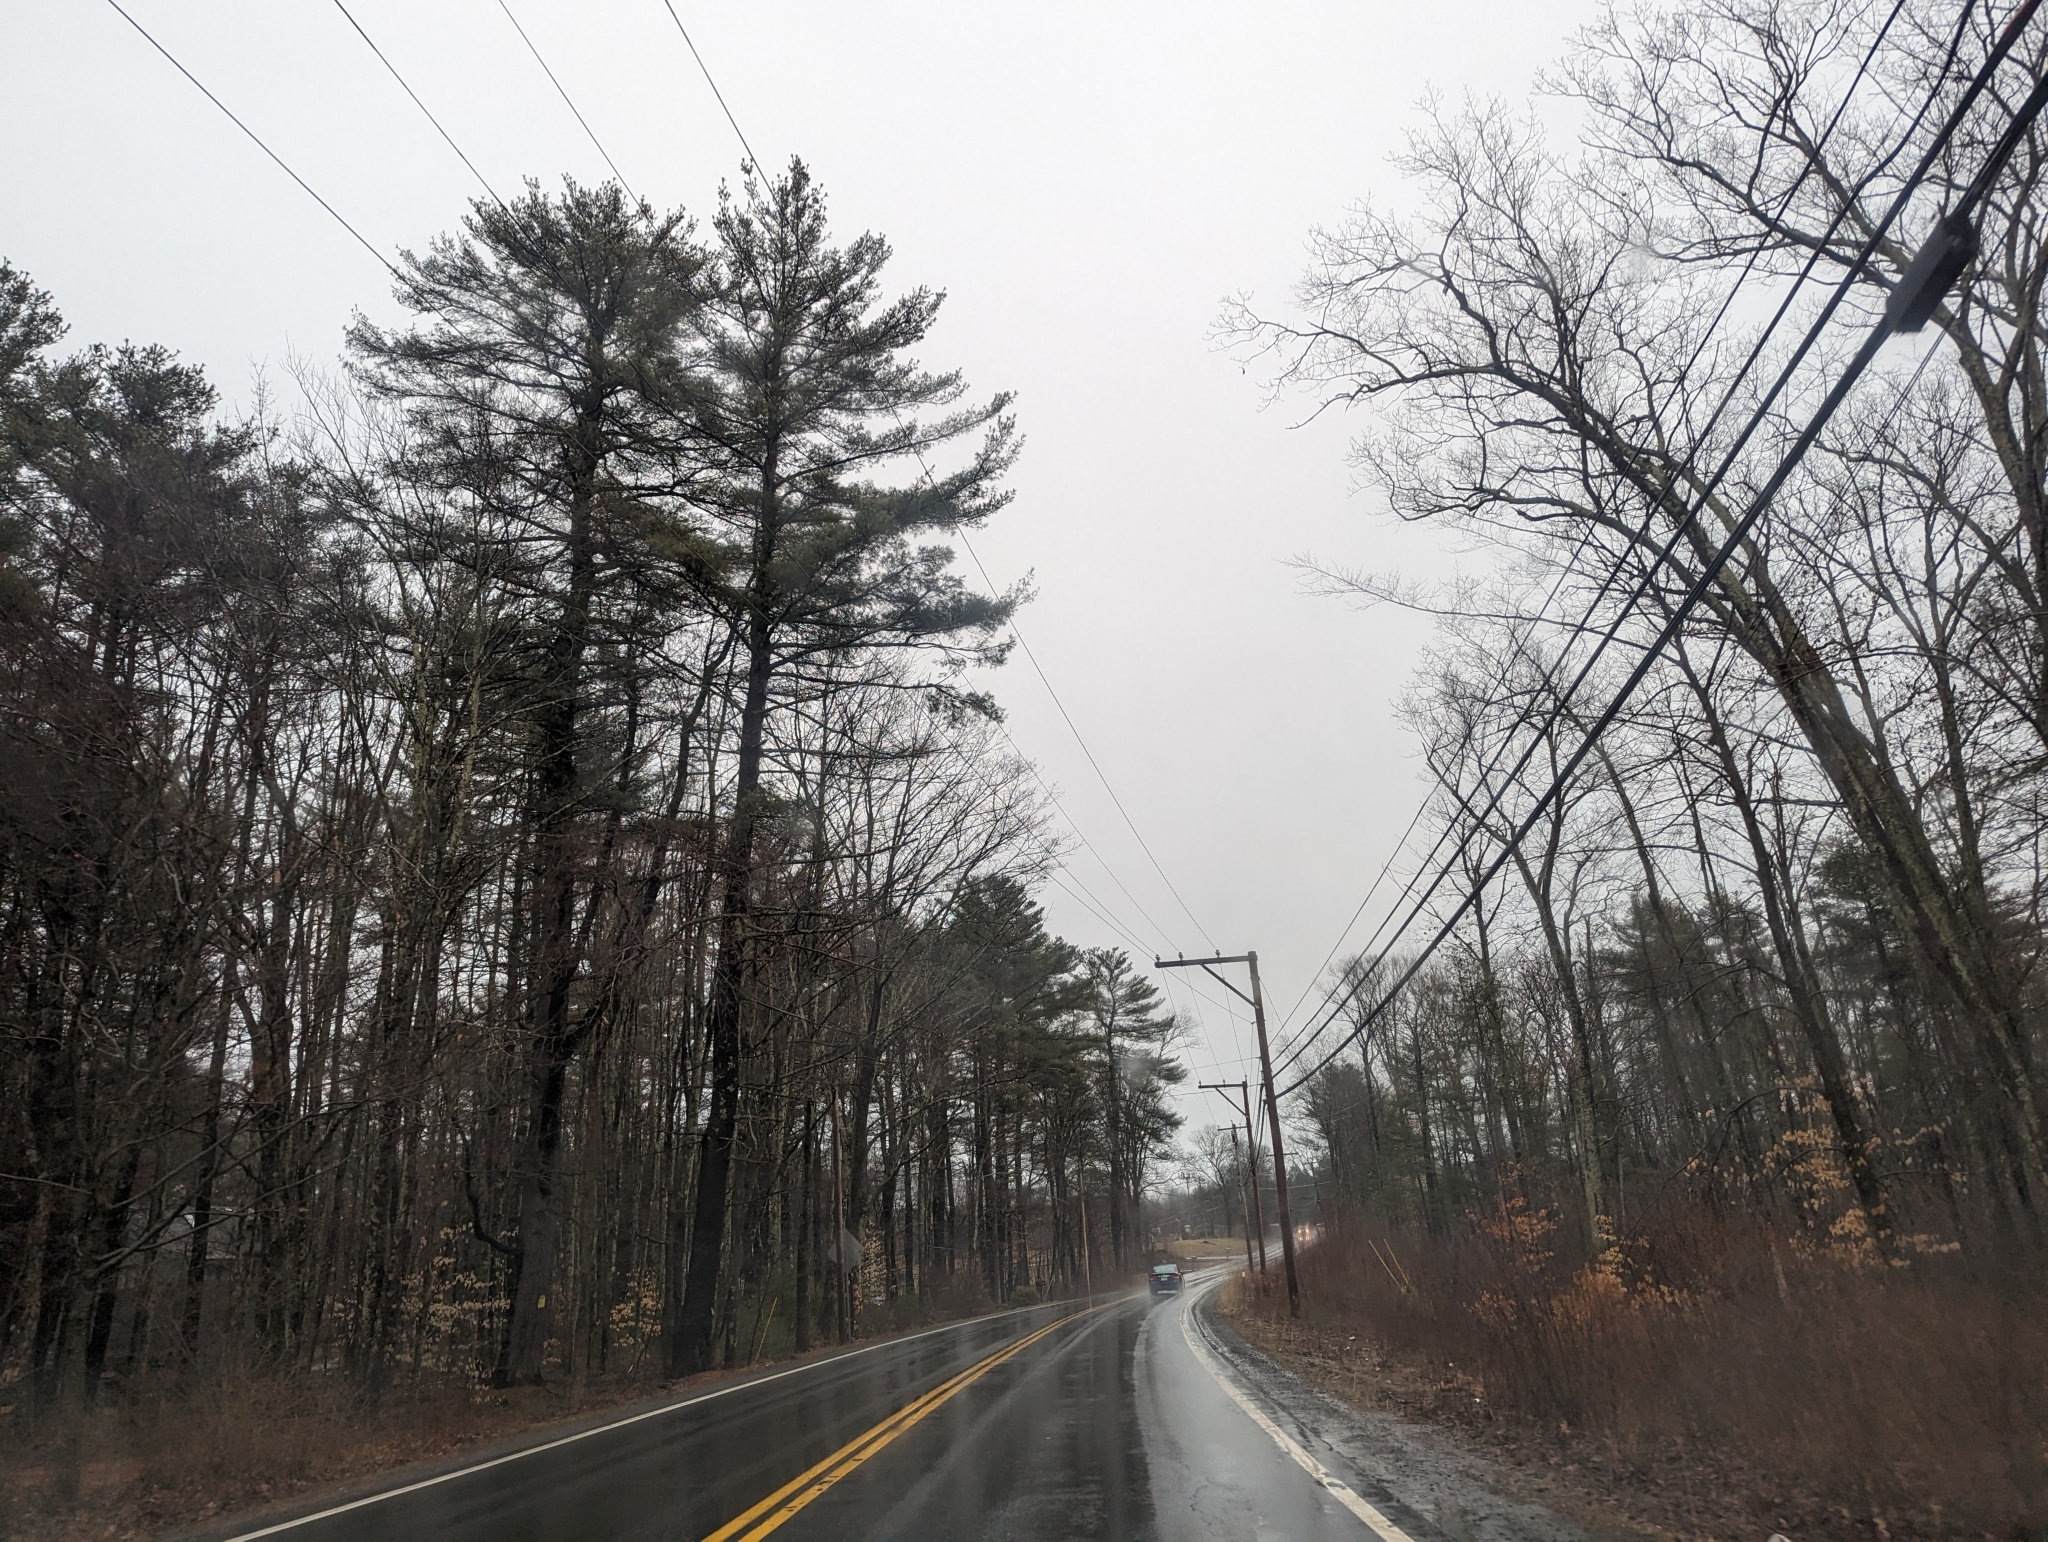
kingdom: Plantae
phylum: Tracheophyta
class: Pinopsida
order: Pinales
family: Pinaceae
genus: Pinus
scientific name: Pinus strobus
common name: Weymouth pine
